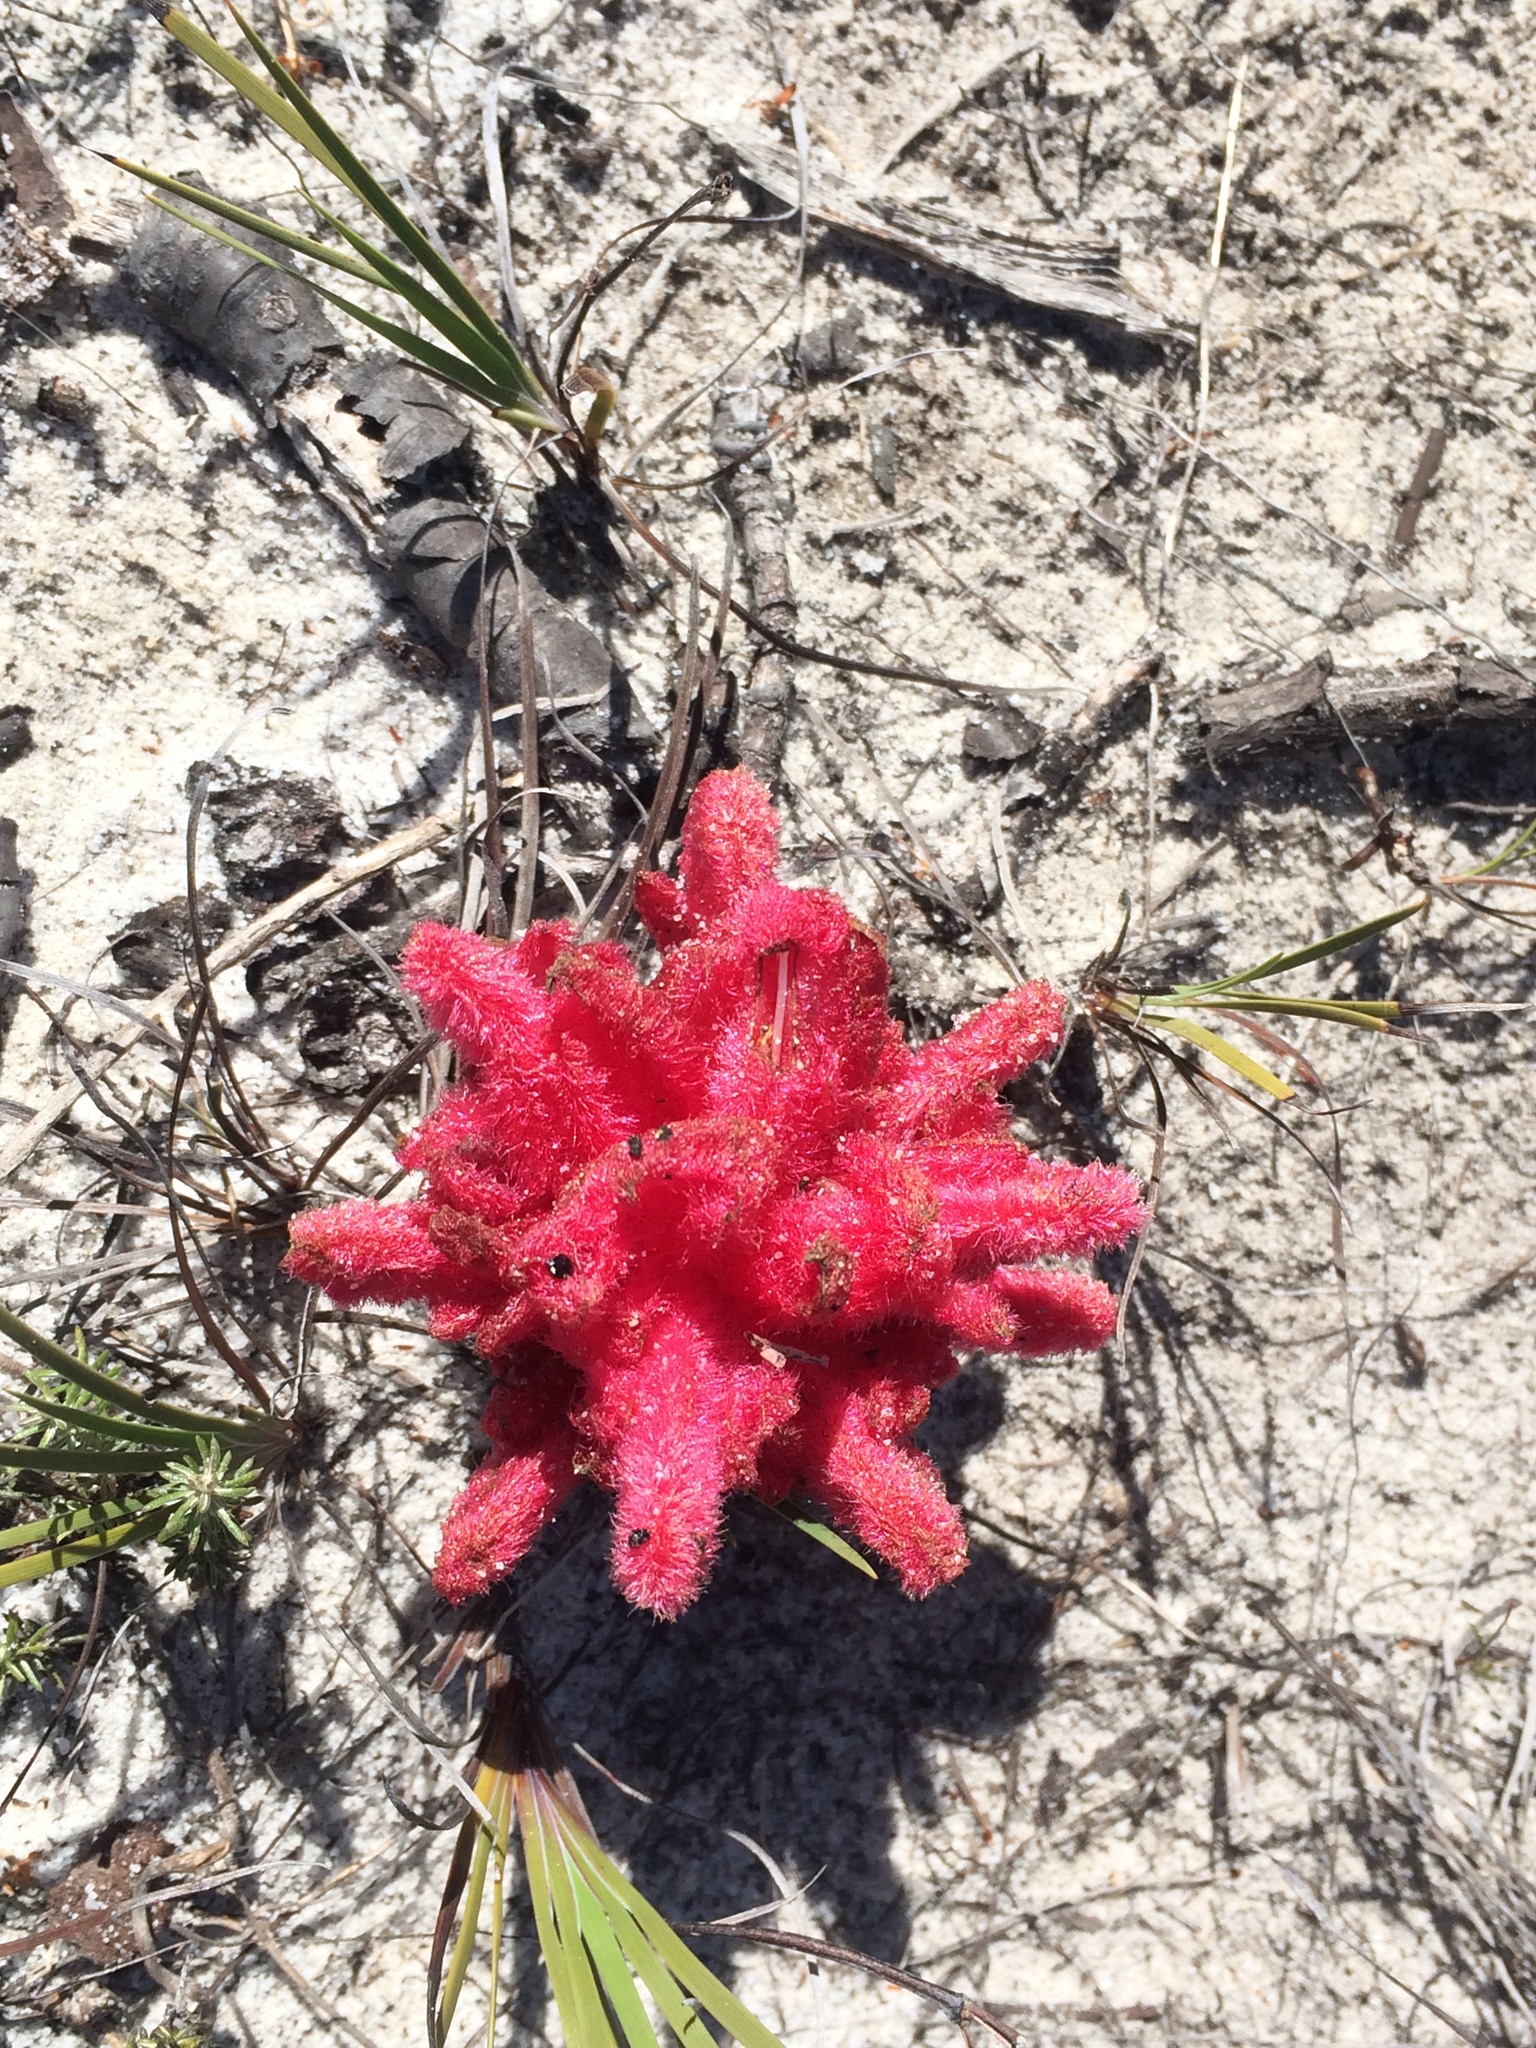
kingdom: Plantae
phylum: Tracheophyta
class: Magnoliopsida
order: Lamiales
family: Orobanchaceae
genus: Hyobanche
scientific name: Hyobanche sanguinea
